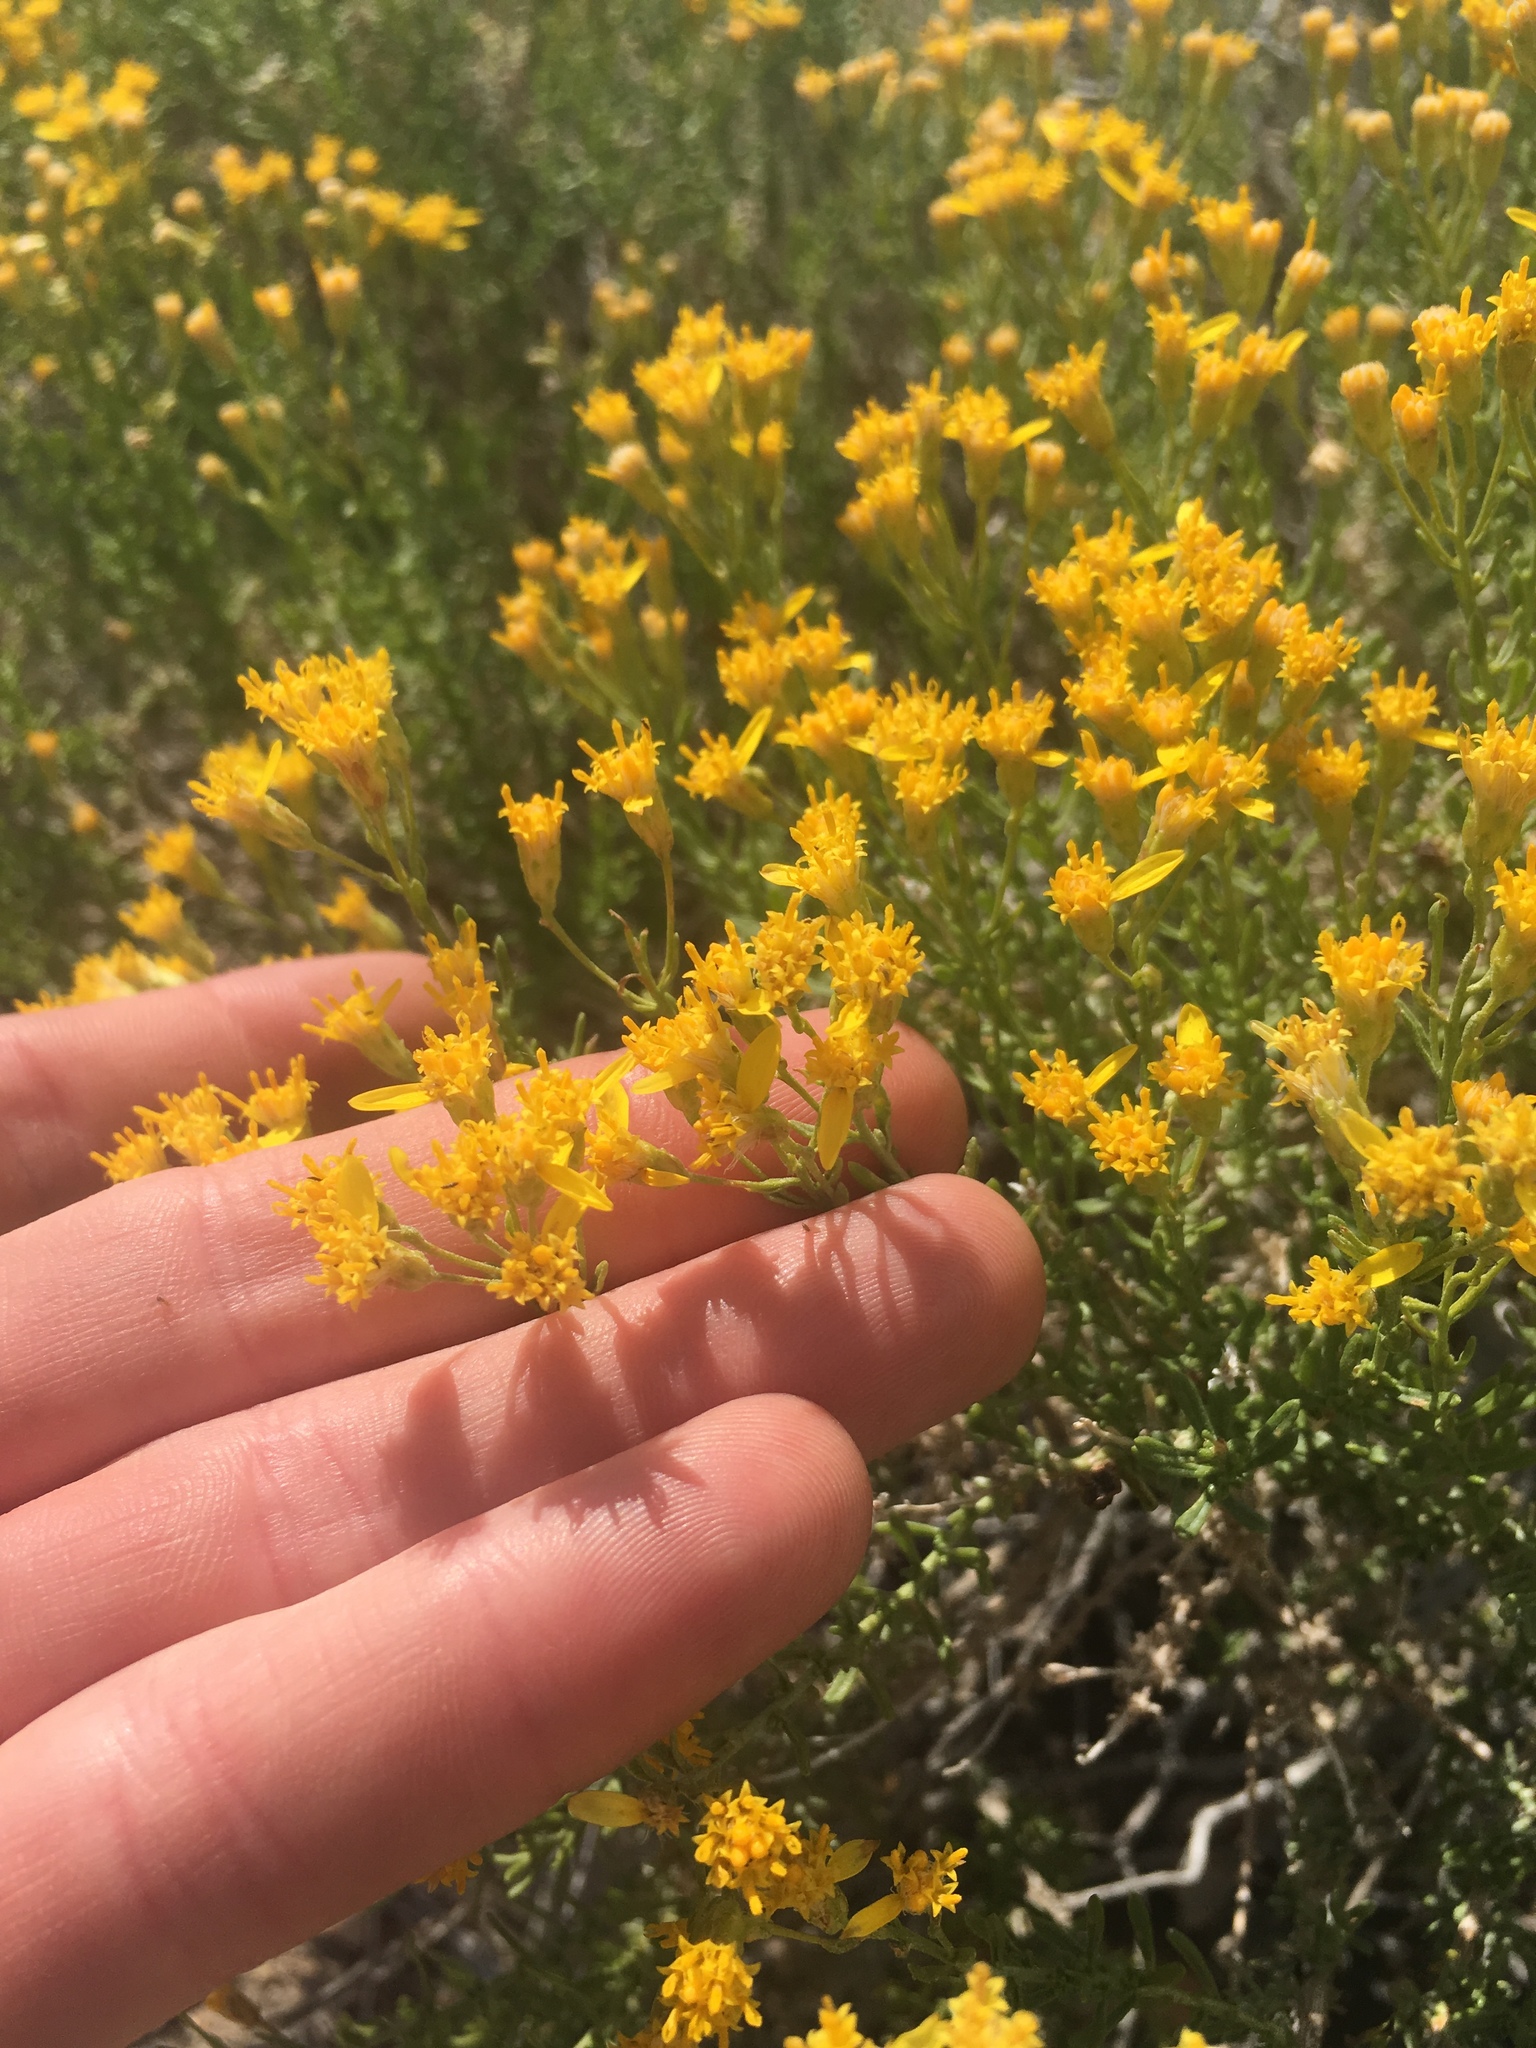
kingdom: Plantae
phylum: Tracheophyta
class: Magnoliopsida
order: Asterales
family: Asteraceae
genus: Ericameria
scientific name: Ericameria cooperi
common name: Cooper's goldenbush
